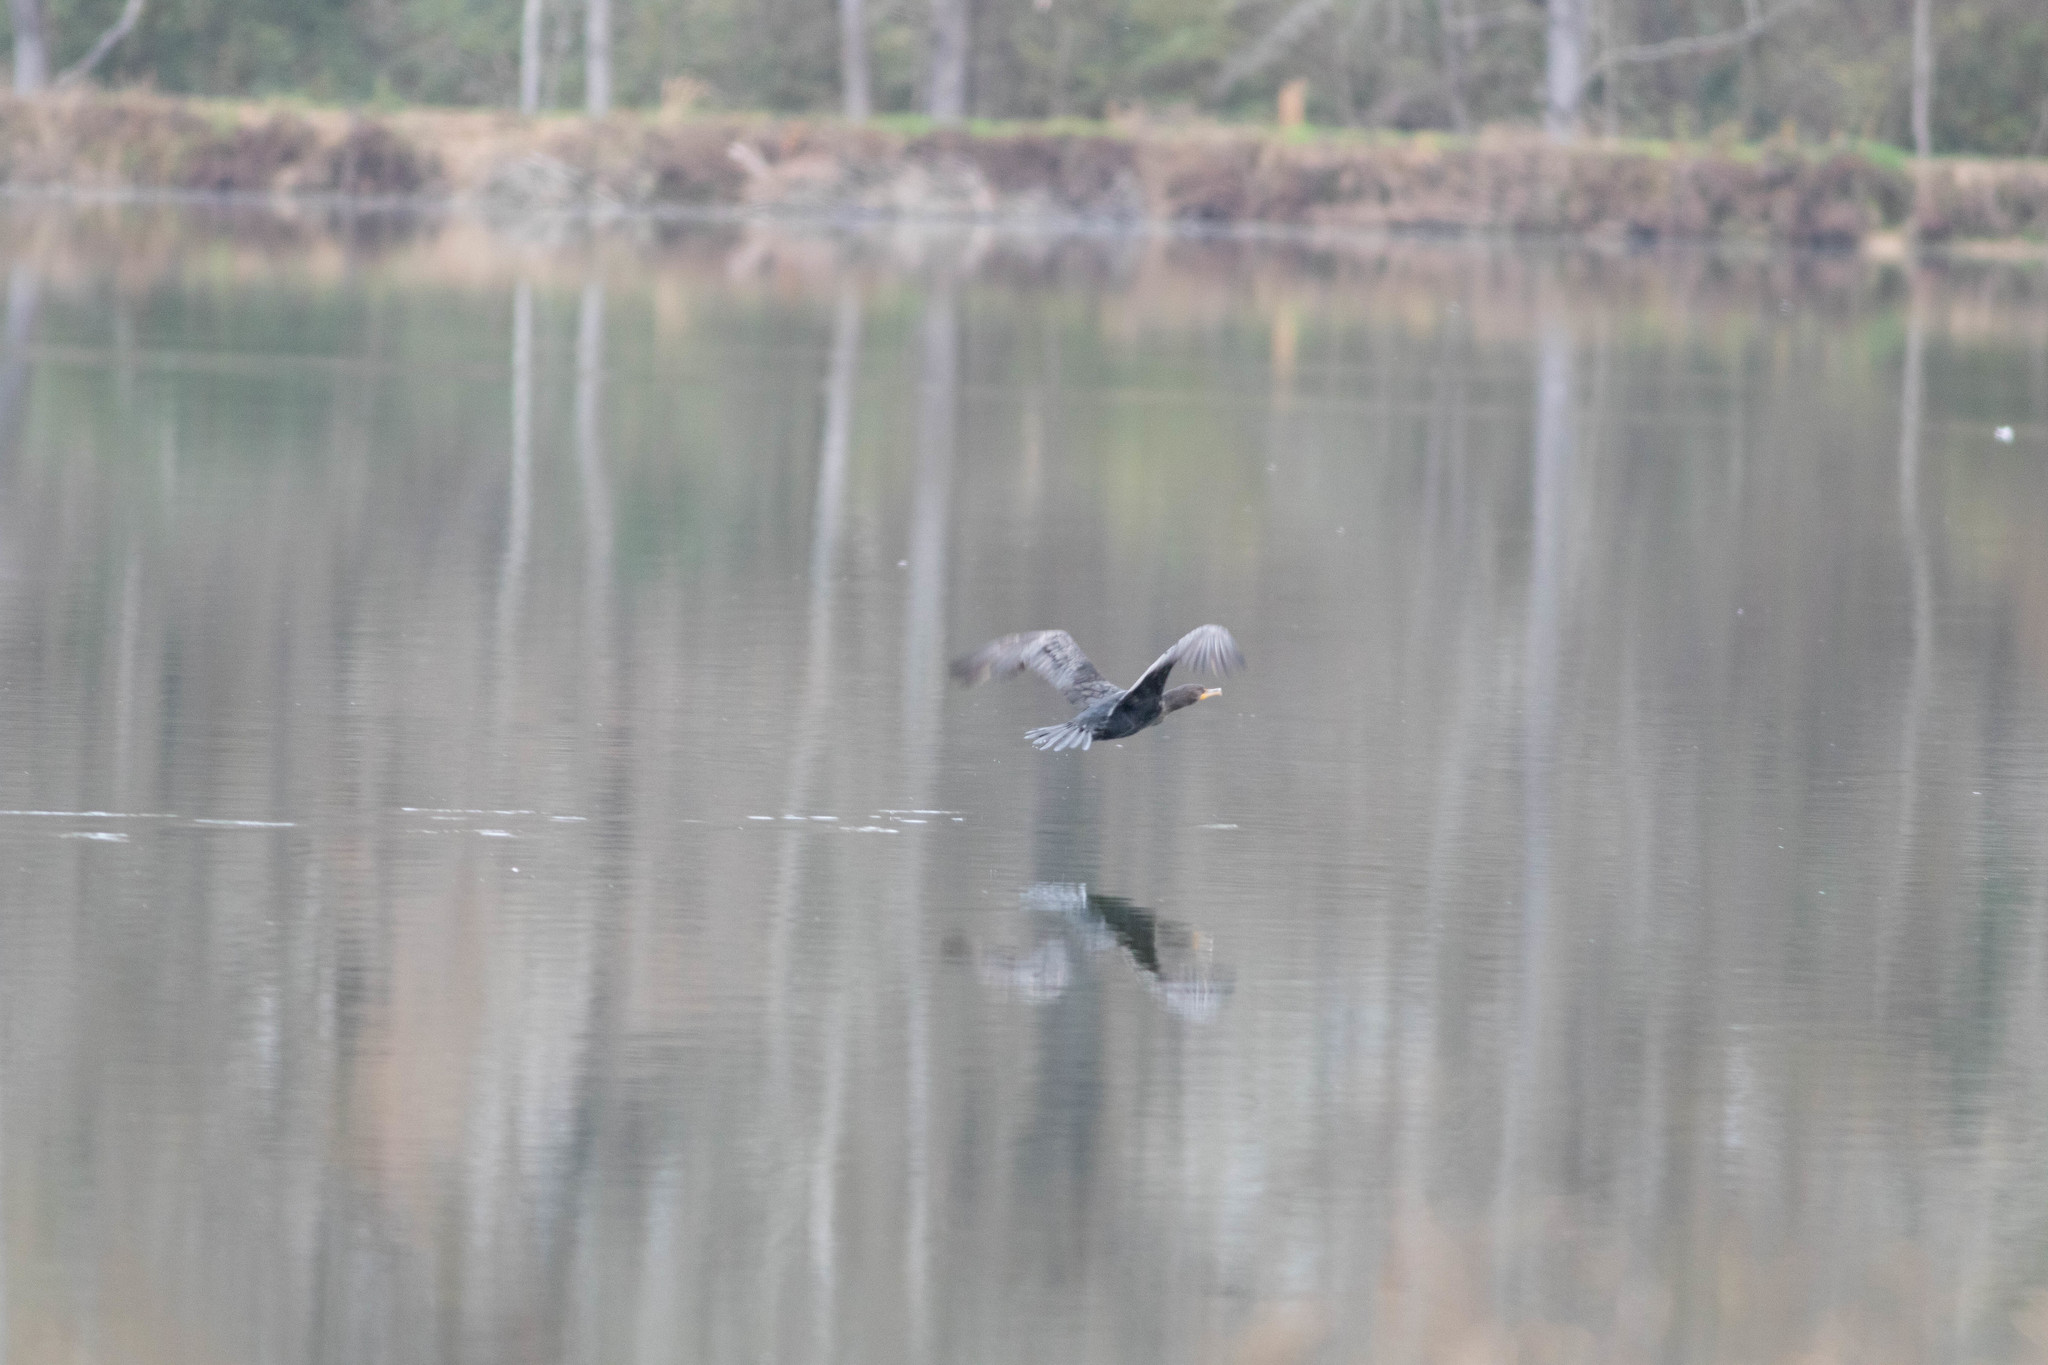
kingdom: Animalia
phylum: Chordata
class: Aves
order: Suliformes
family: Phalacrocoracidae
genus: Phalacrocorax
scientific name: Phalacrocorax auritus
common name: Double-crested cormorant
